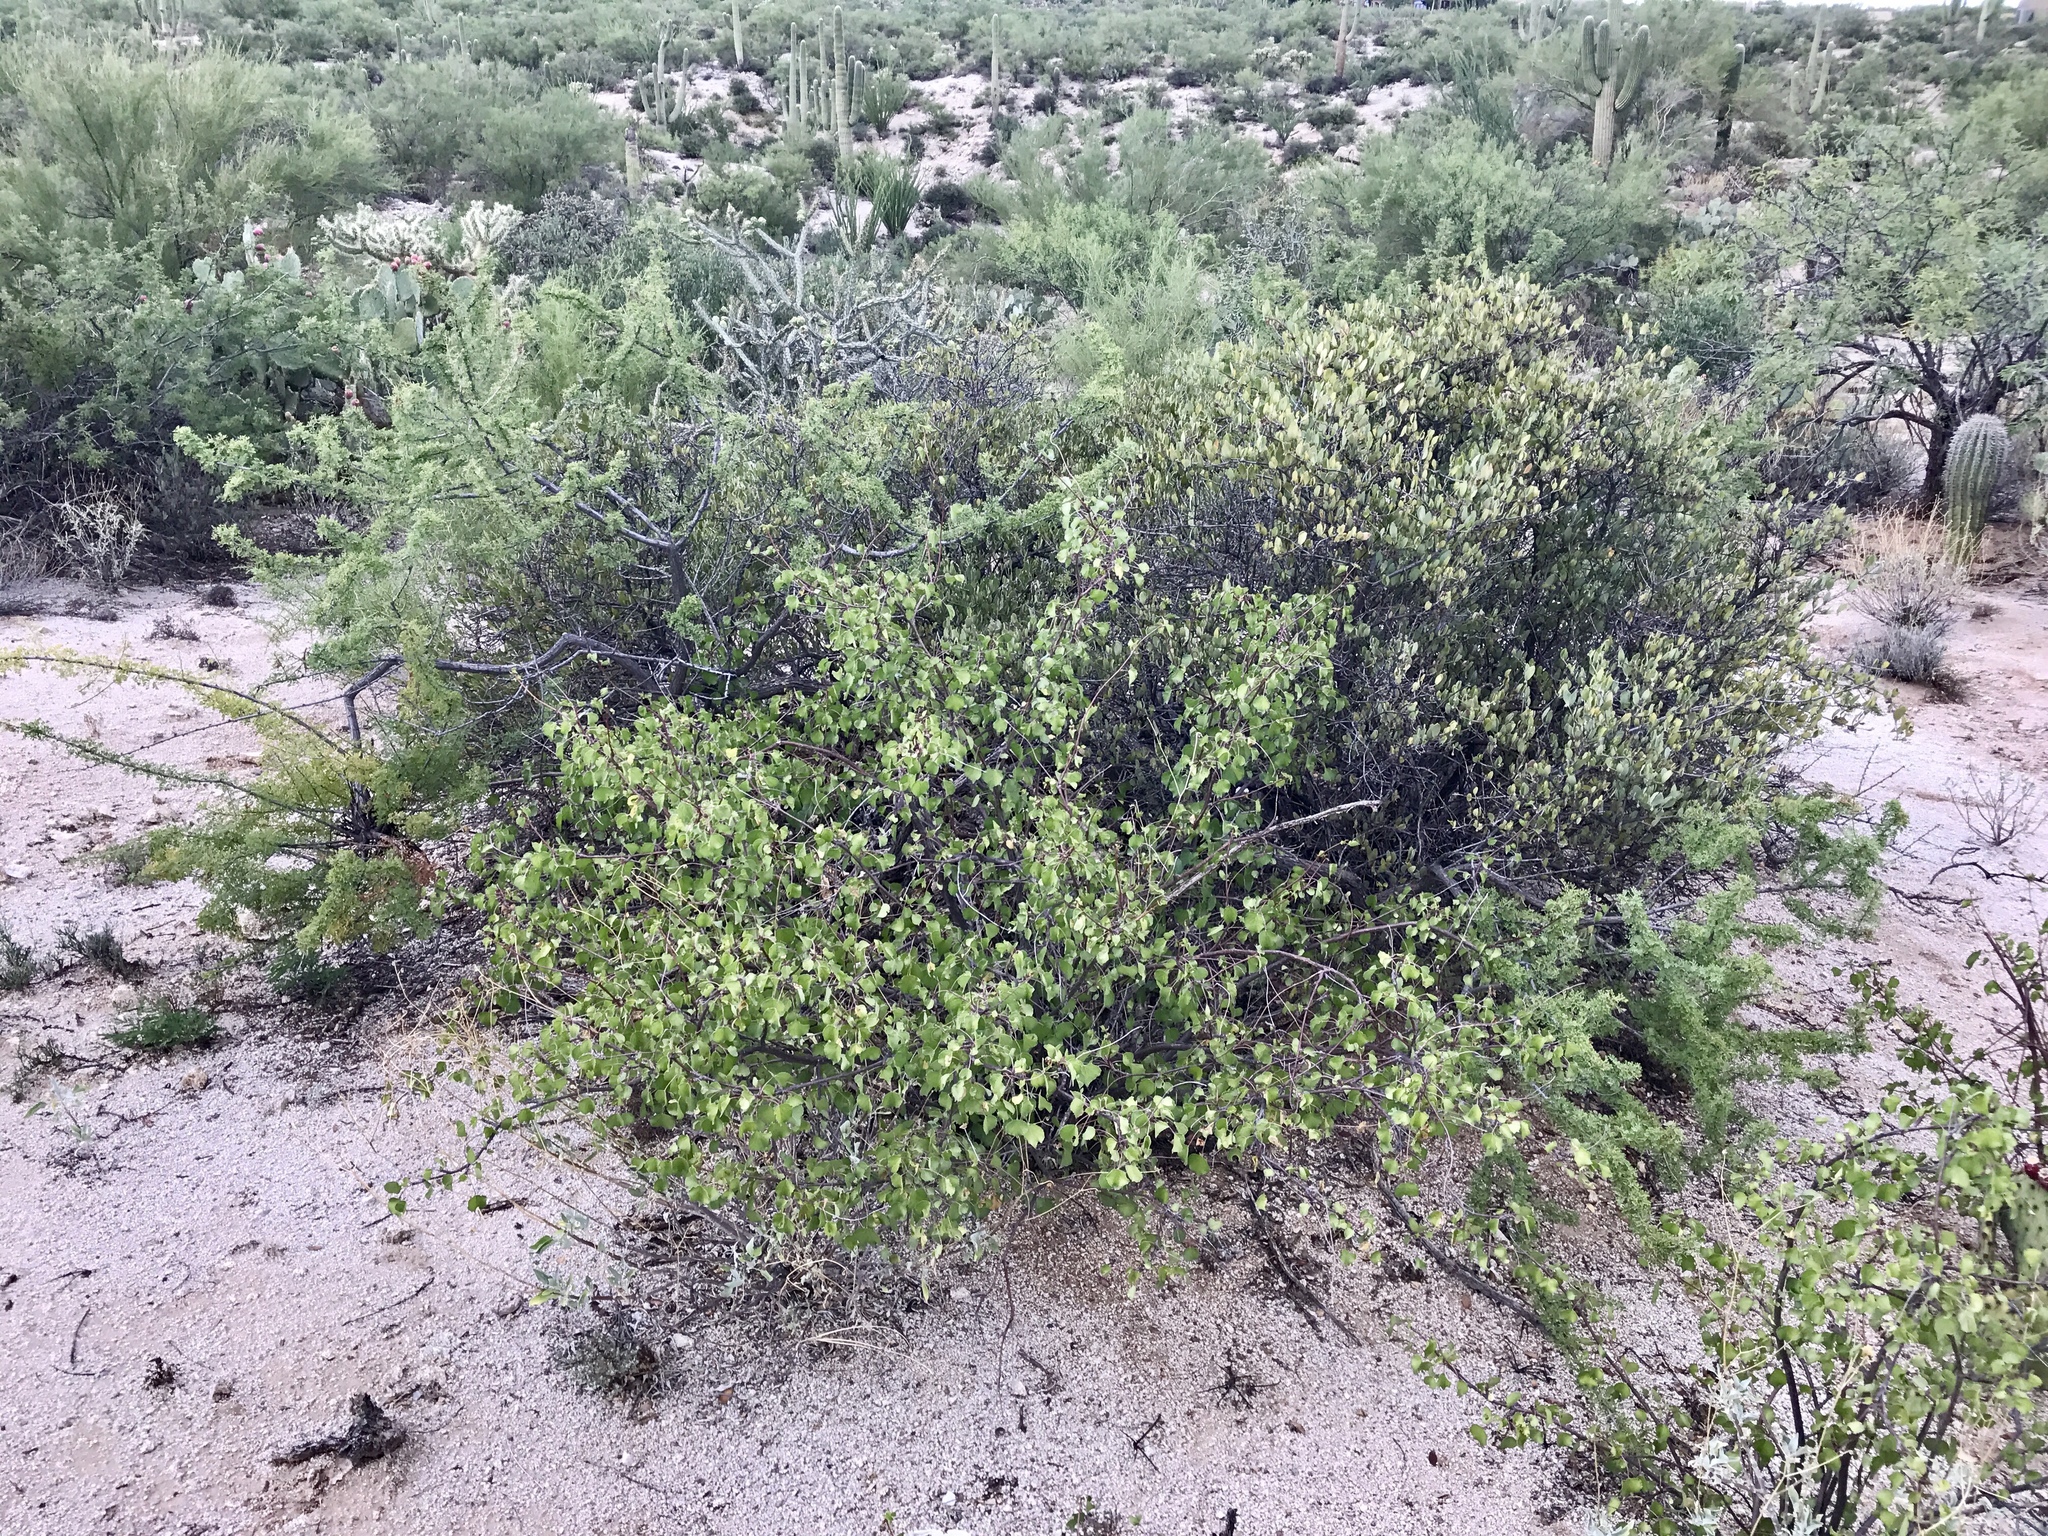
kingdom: Plantae
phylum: Tracheophyta
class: Magnoliopsida
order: Malpighiales
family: Euphorbiaceae
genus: Jatropha
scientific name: Jatropha cardiophylla
